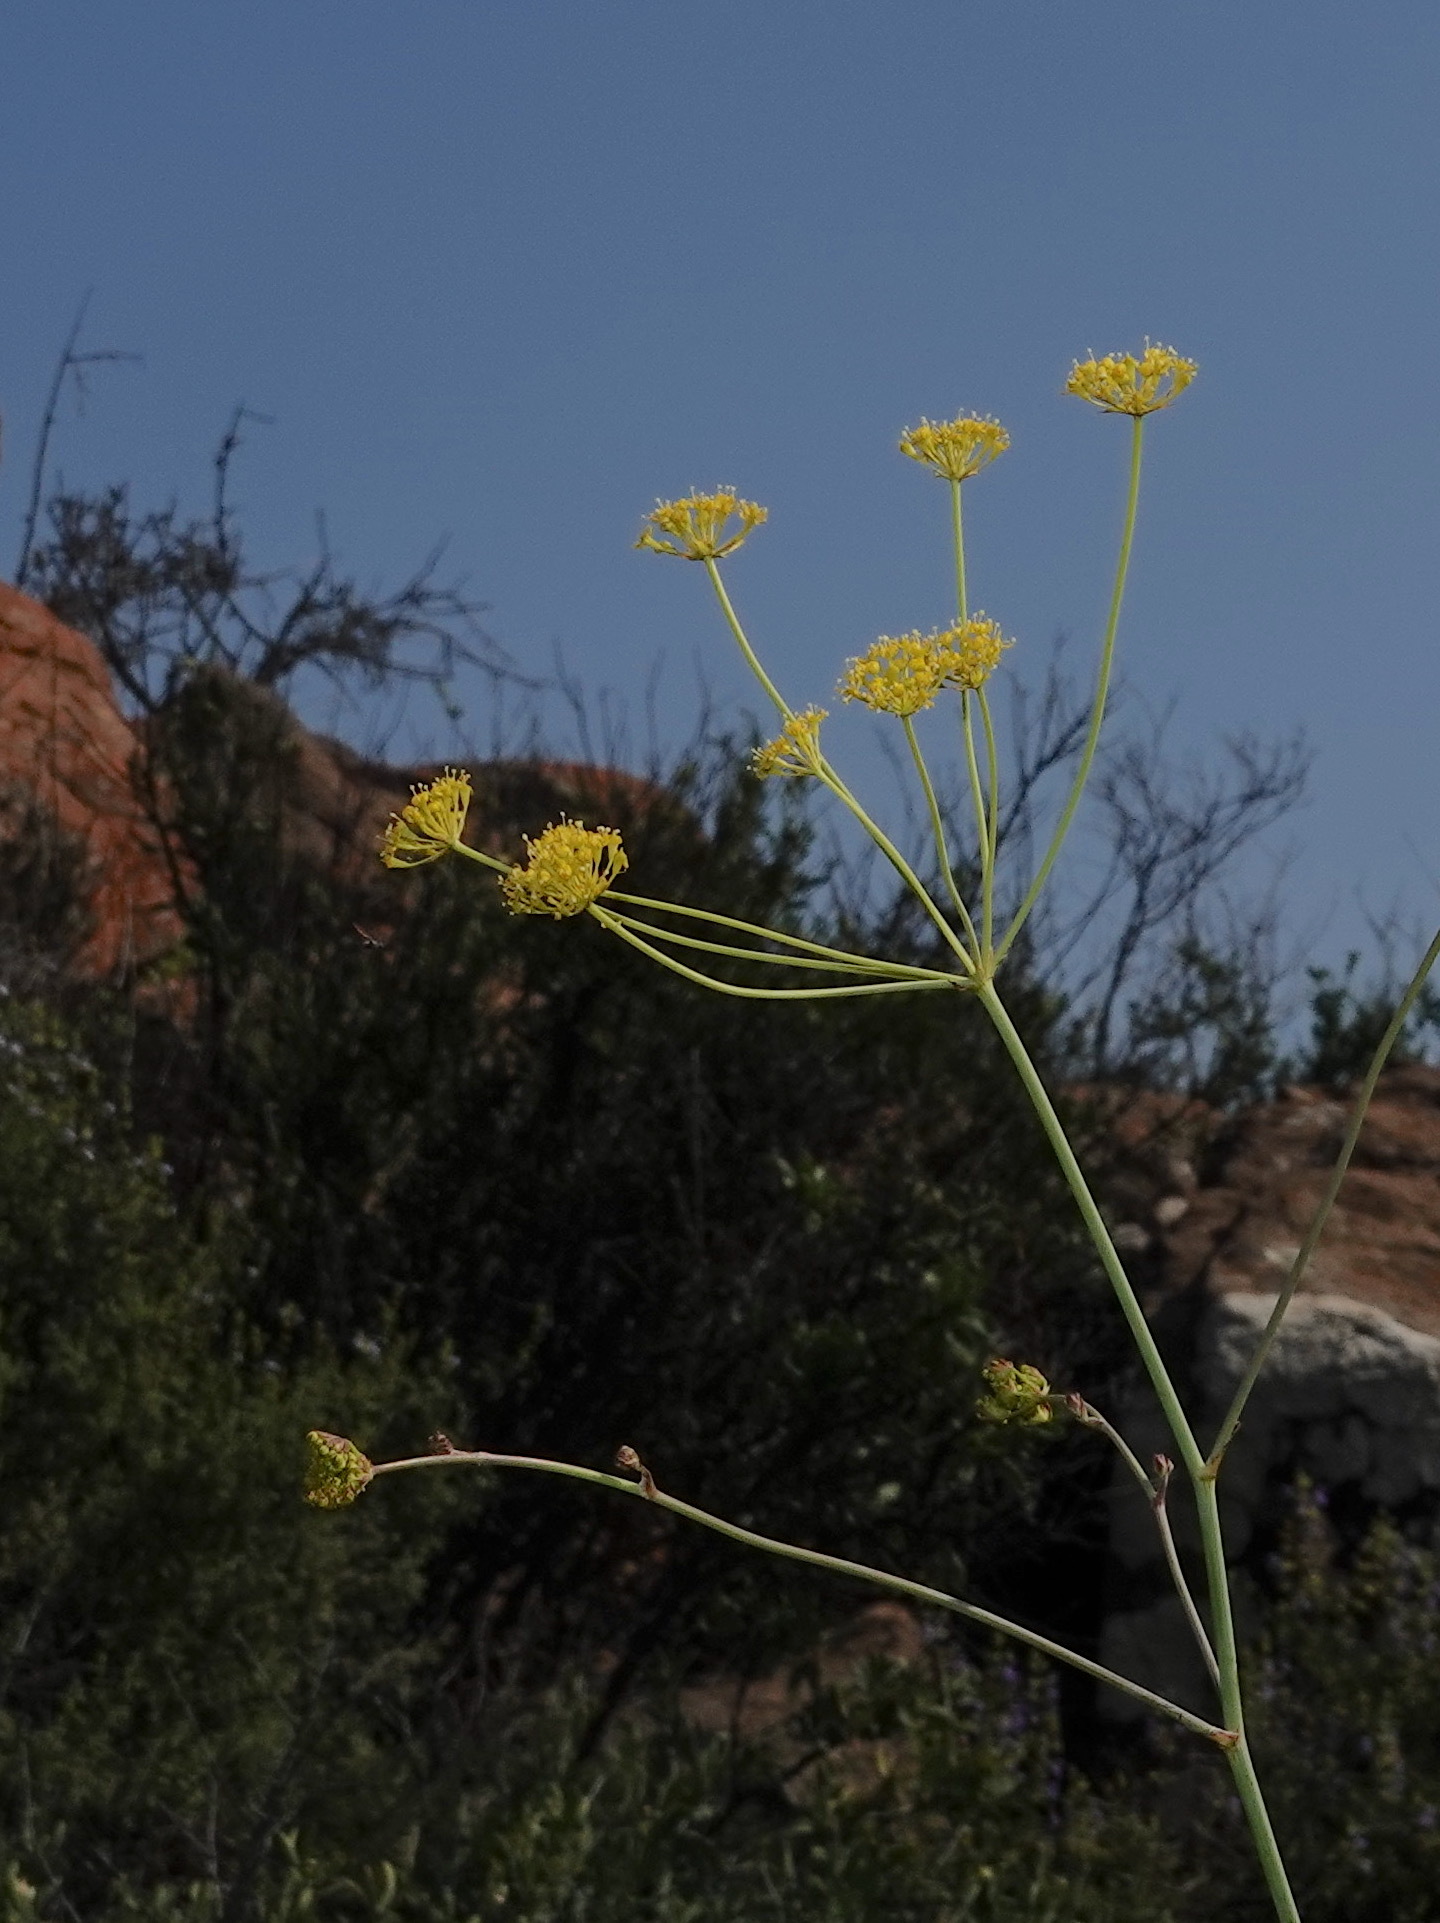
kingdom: Plantae
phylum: Tracheophyta
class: Magnoliopsida
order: Apiales
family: Apiaceae
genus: Annesorhiza
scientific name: Annesorhiza altiscapa
